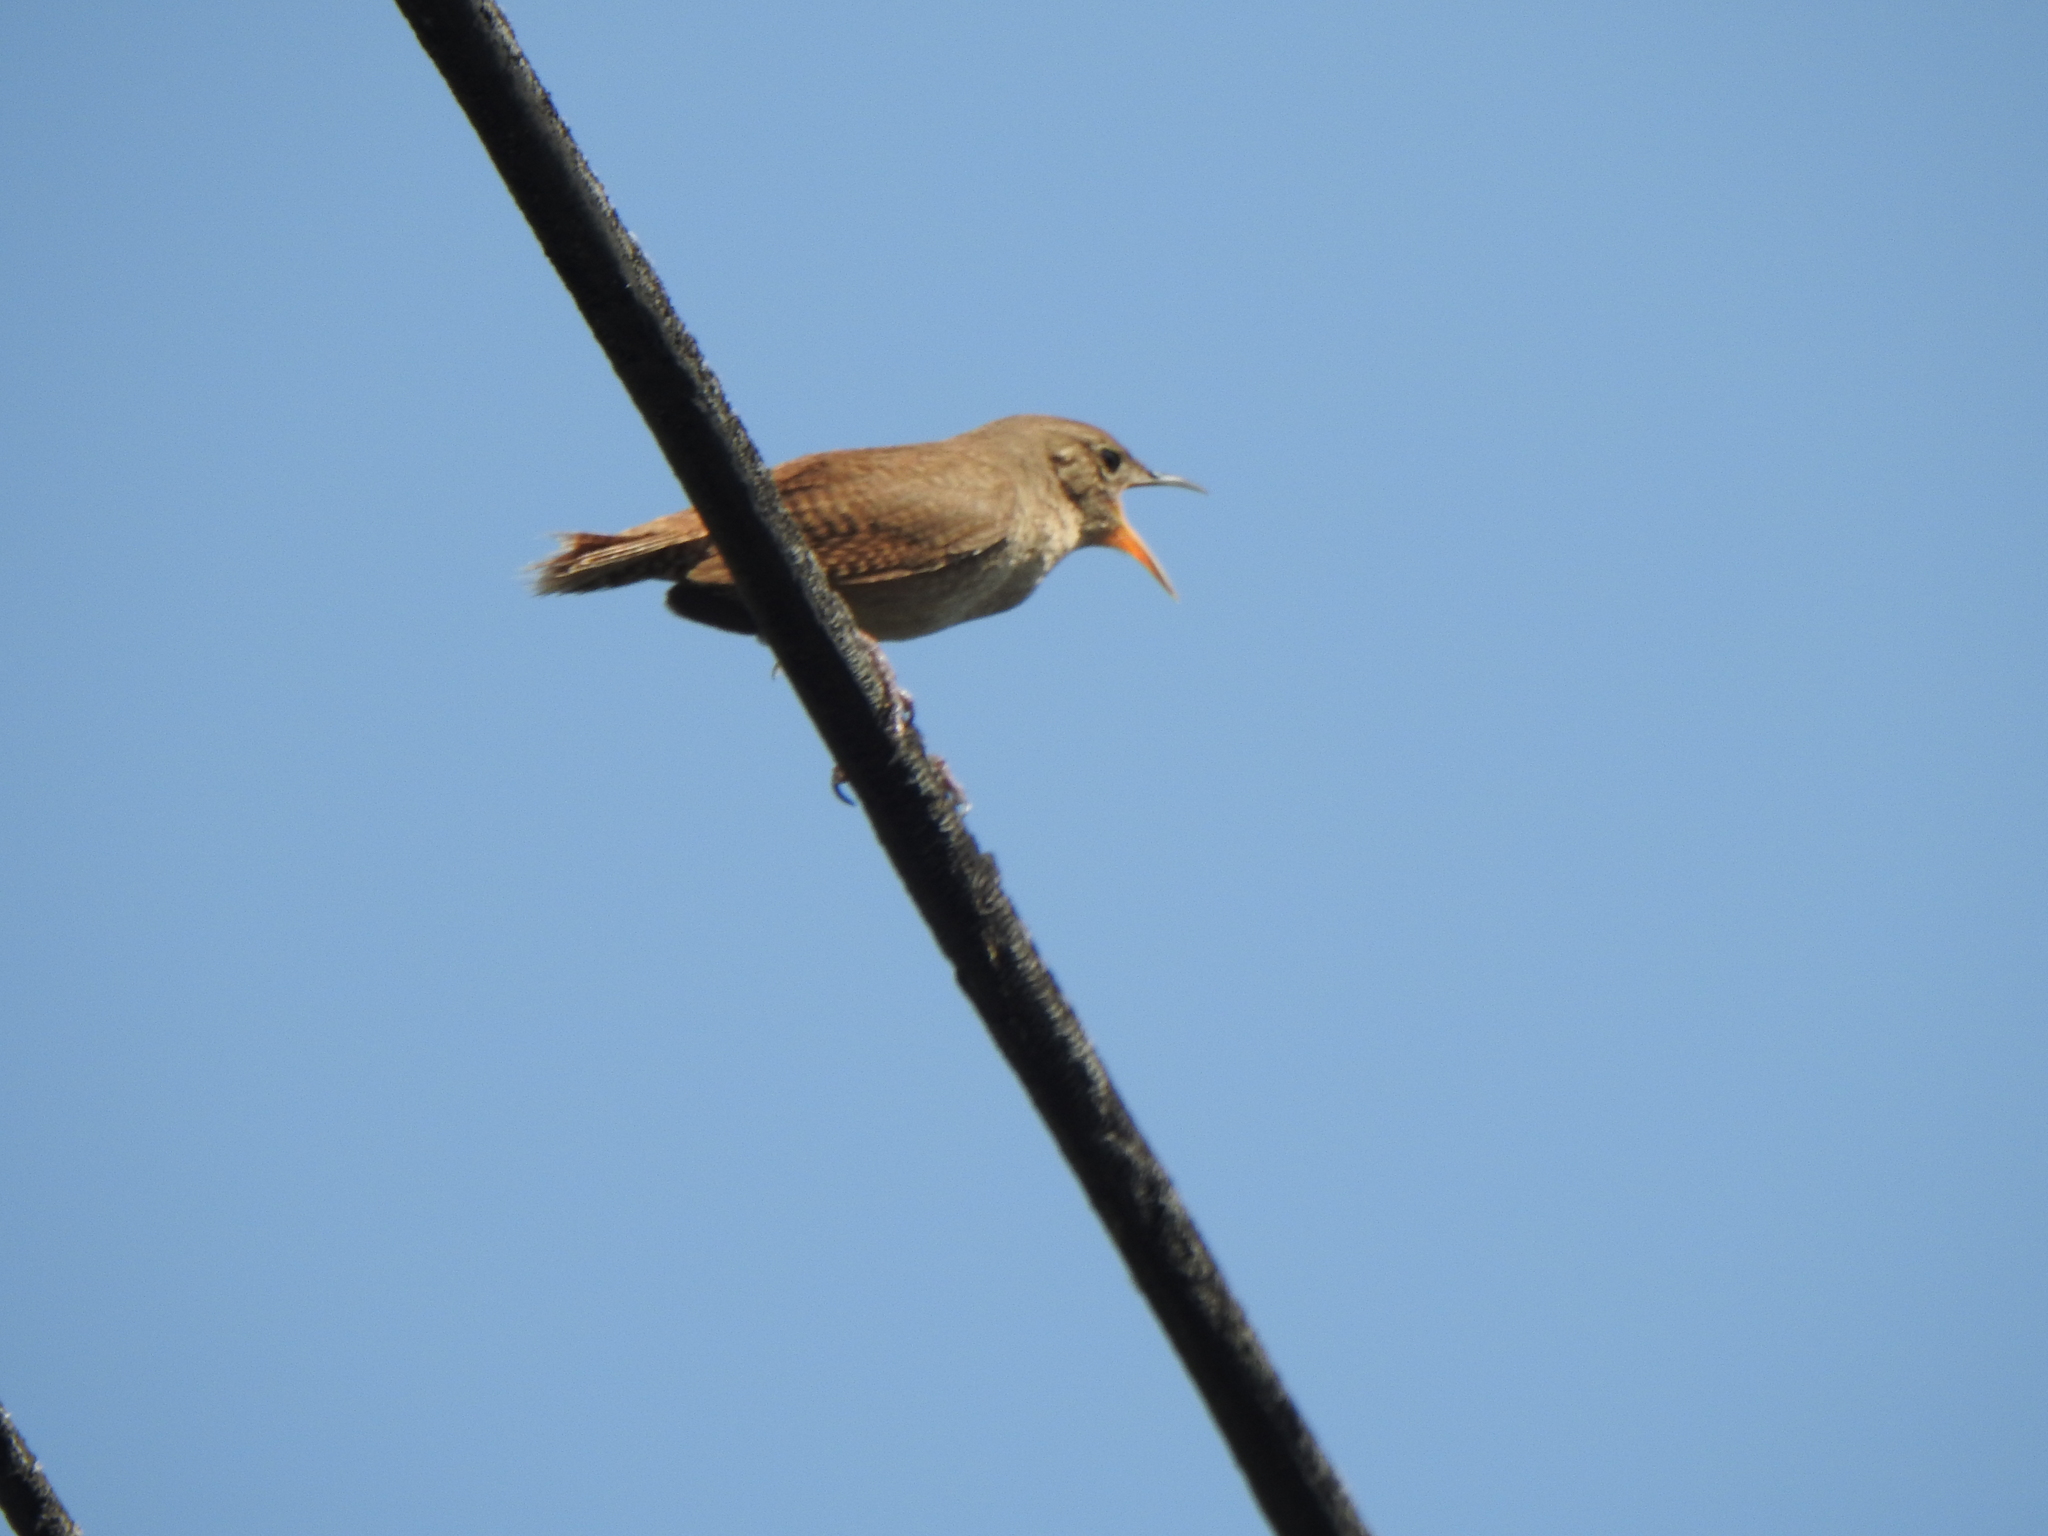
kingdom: Animalia
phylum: Chordata
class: Aves
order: Passeriformes
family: Troglodytidae
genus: Troglodytes
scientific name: Troglodytes aedon
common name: House wren
